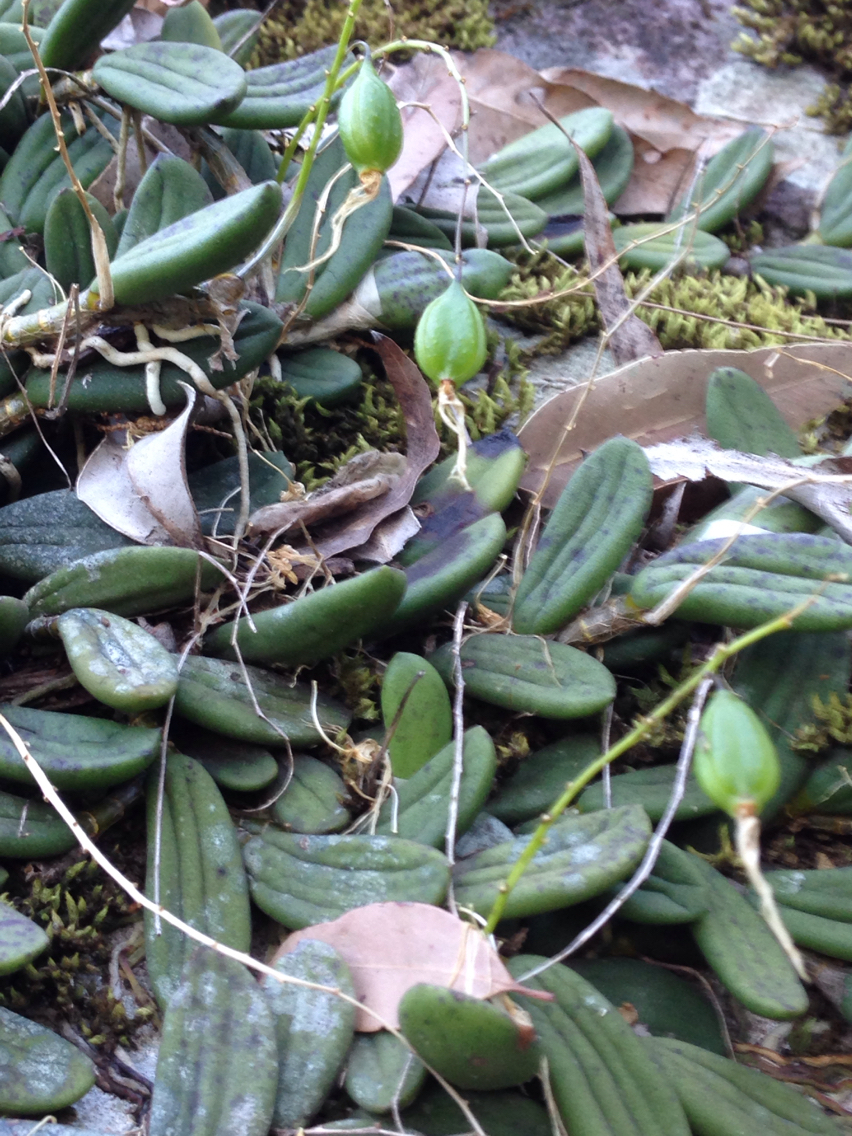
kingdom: Plantae
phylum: Tracheophyta
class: Liliopsida
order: Asparagales
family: Orchidaceae
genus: Dendrobium
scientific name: Dendrobium linguiforme
